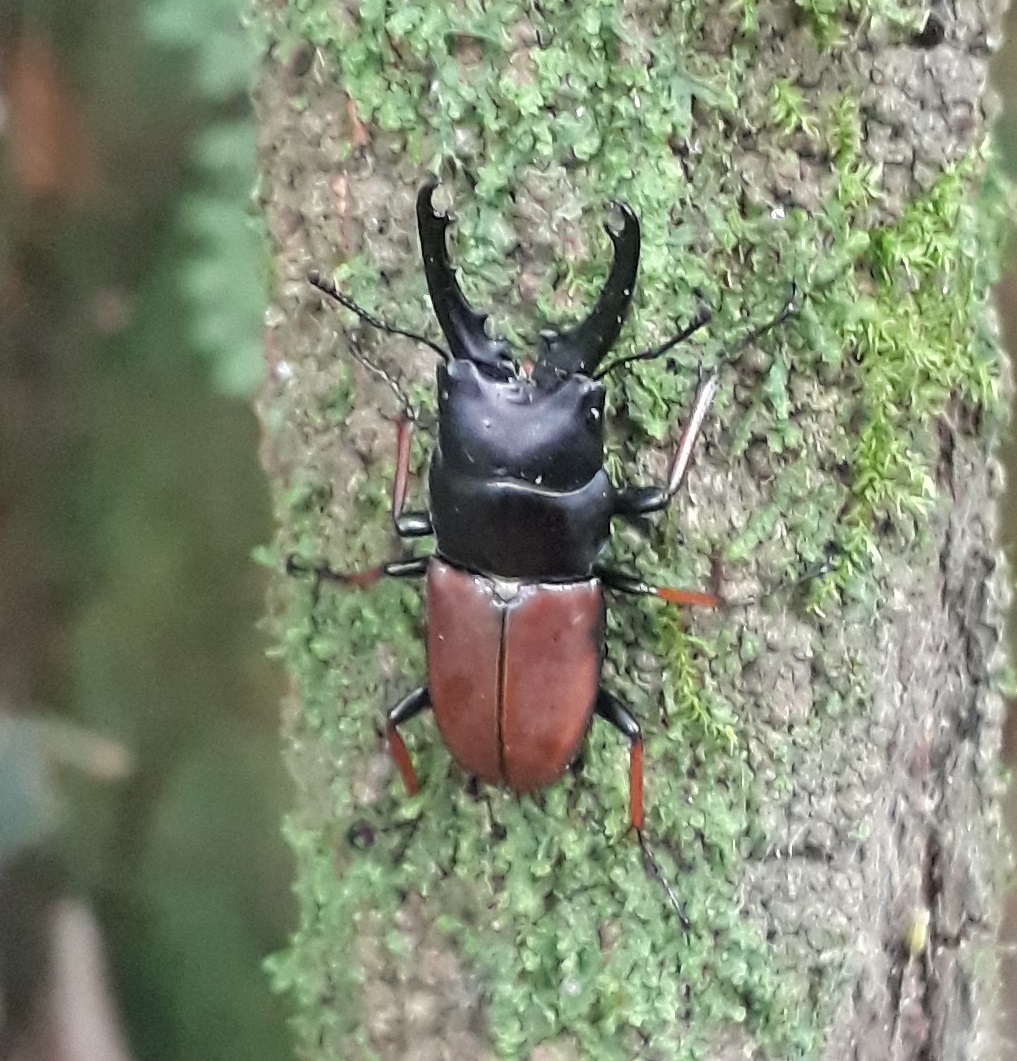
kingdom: Animalia
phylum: Arthropoda
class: Insecta
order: Coleoptera
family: Lucanidae
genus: Leptinopterus
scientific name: Leptinopterus tibialis
